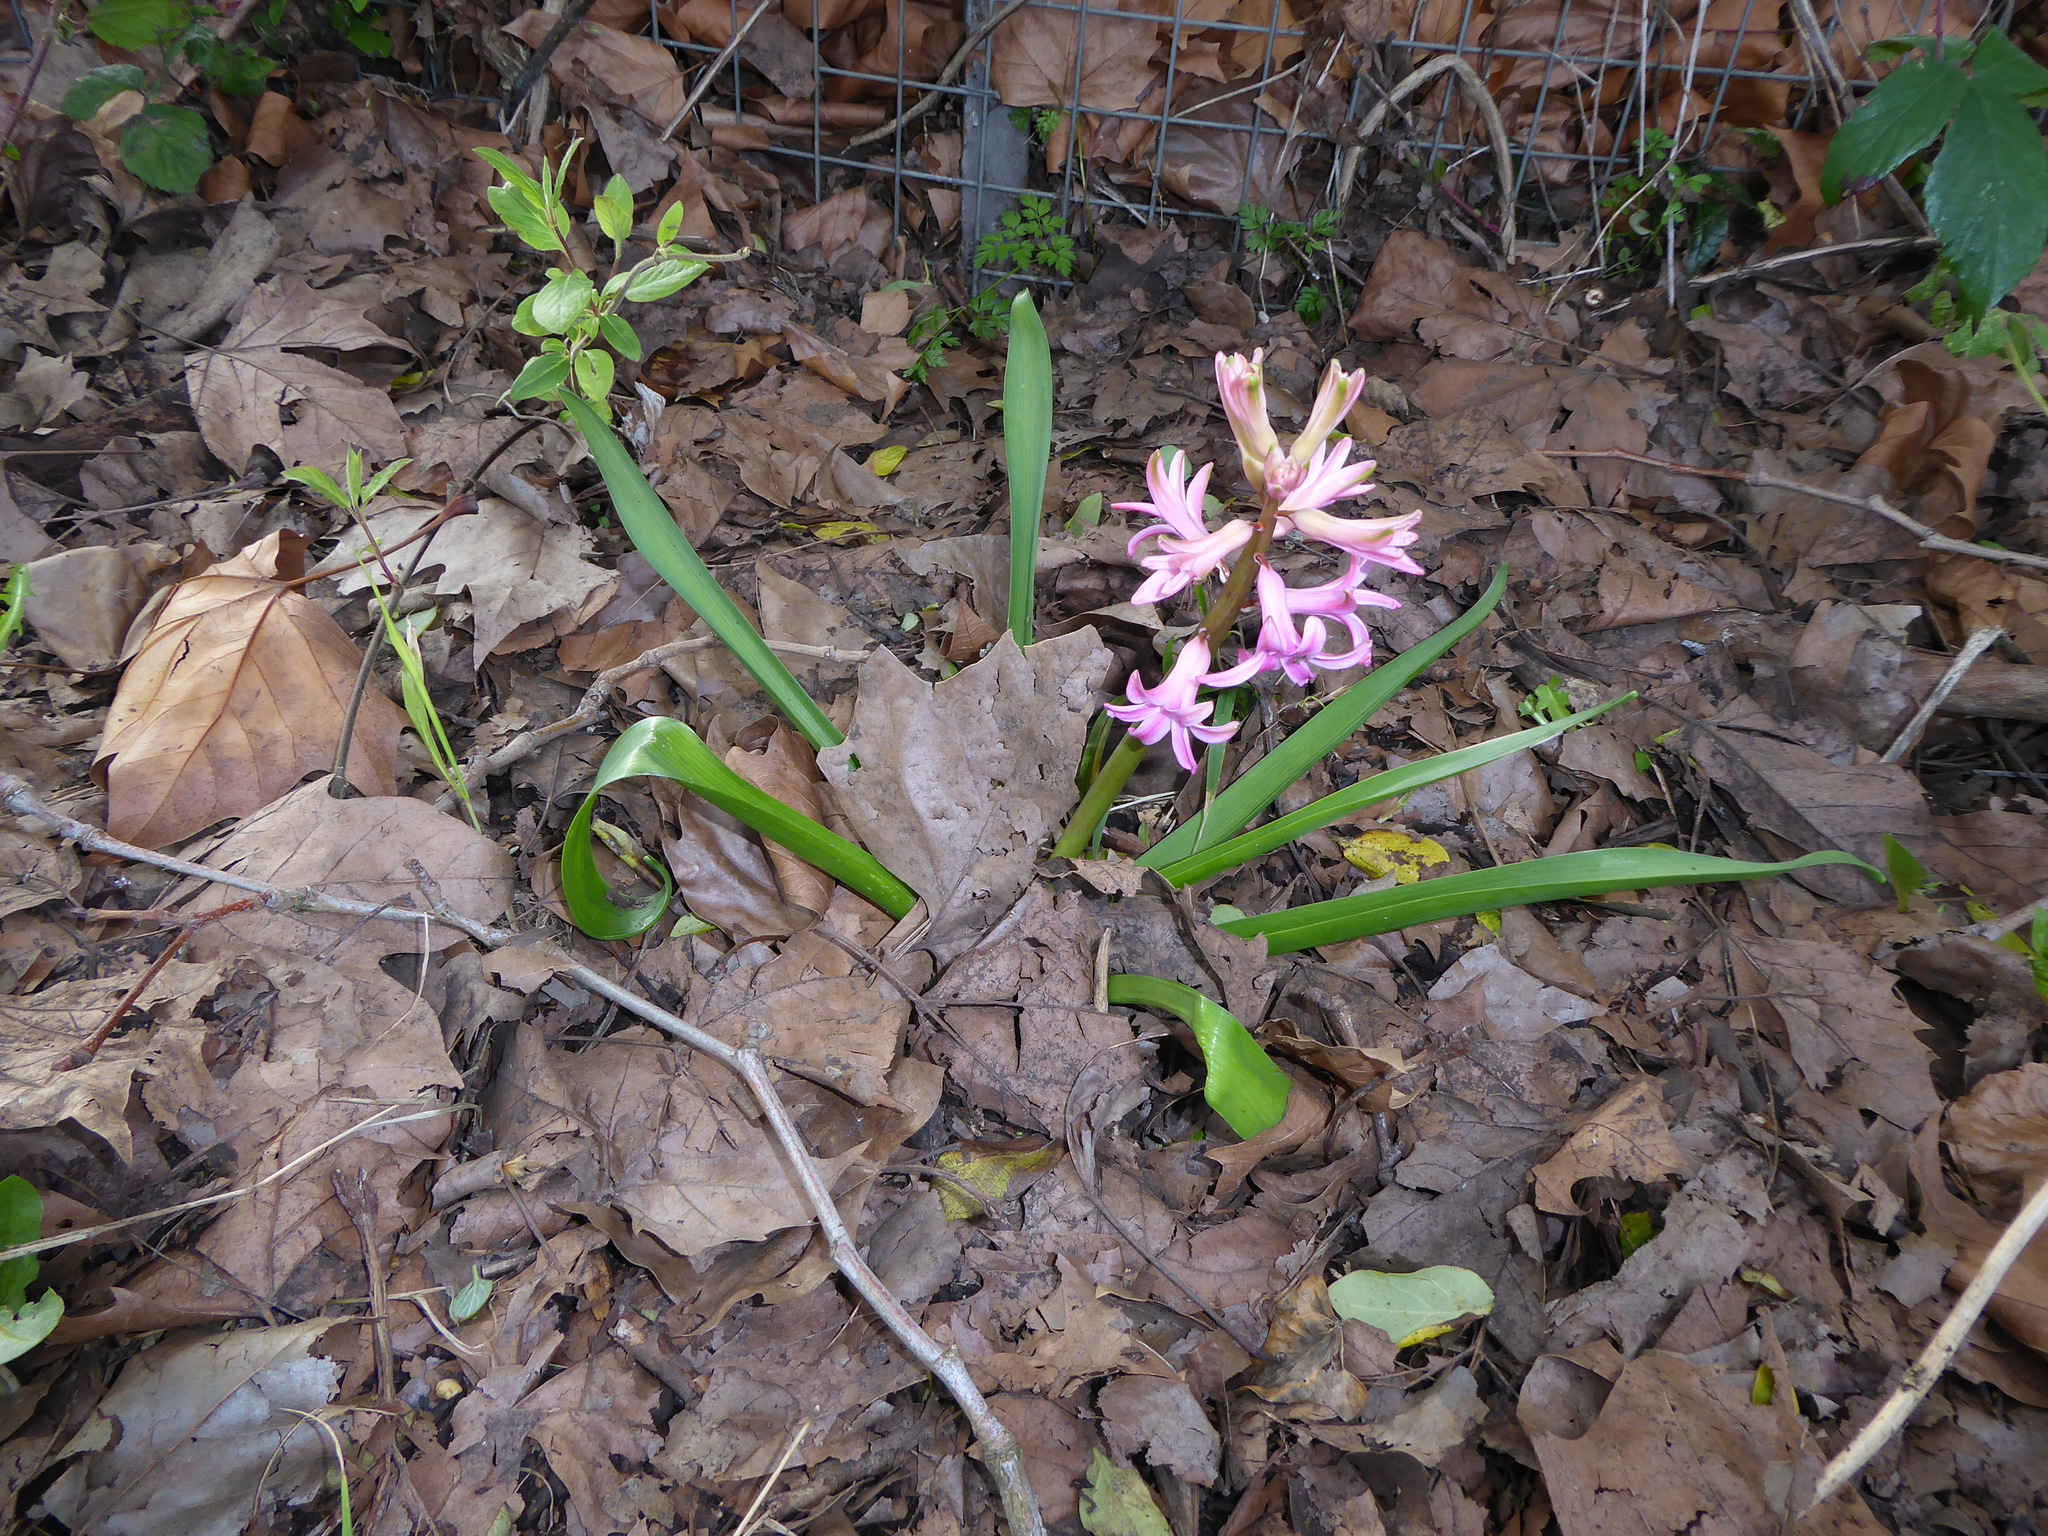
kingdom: Plantae
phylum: Tracheophyta
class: Liliopsida
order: Asparagales
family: Asparagaceae
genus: Hyacinthus
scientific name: Hyacinthus orientalis
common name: Hyacinth
